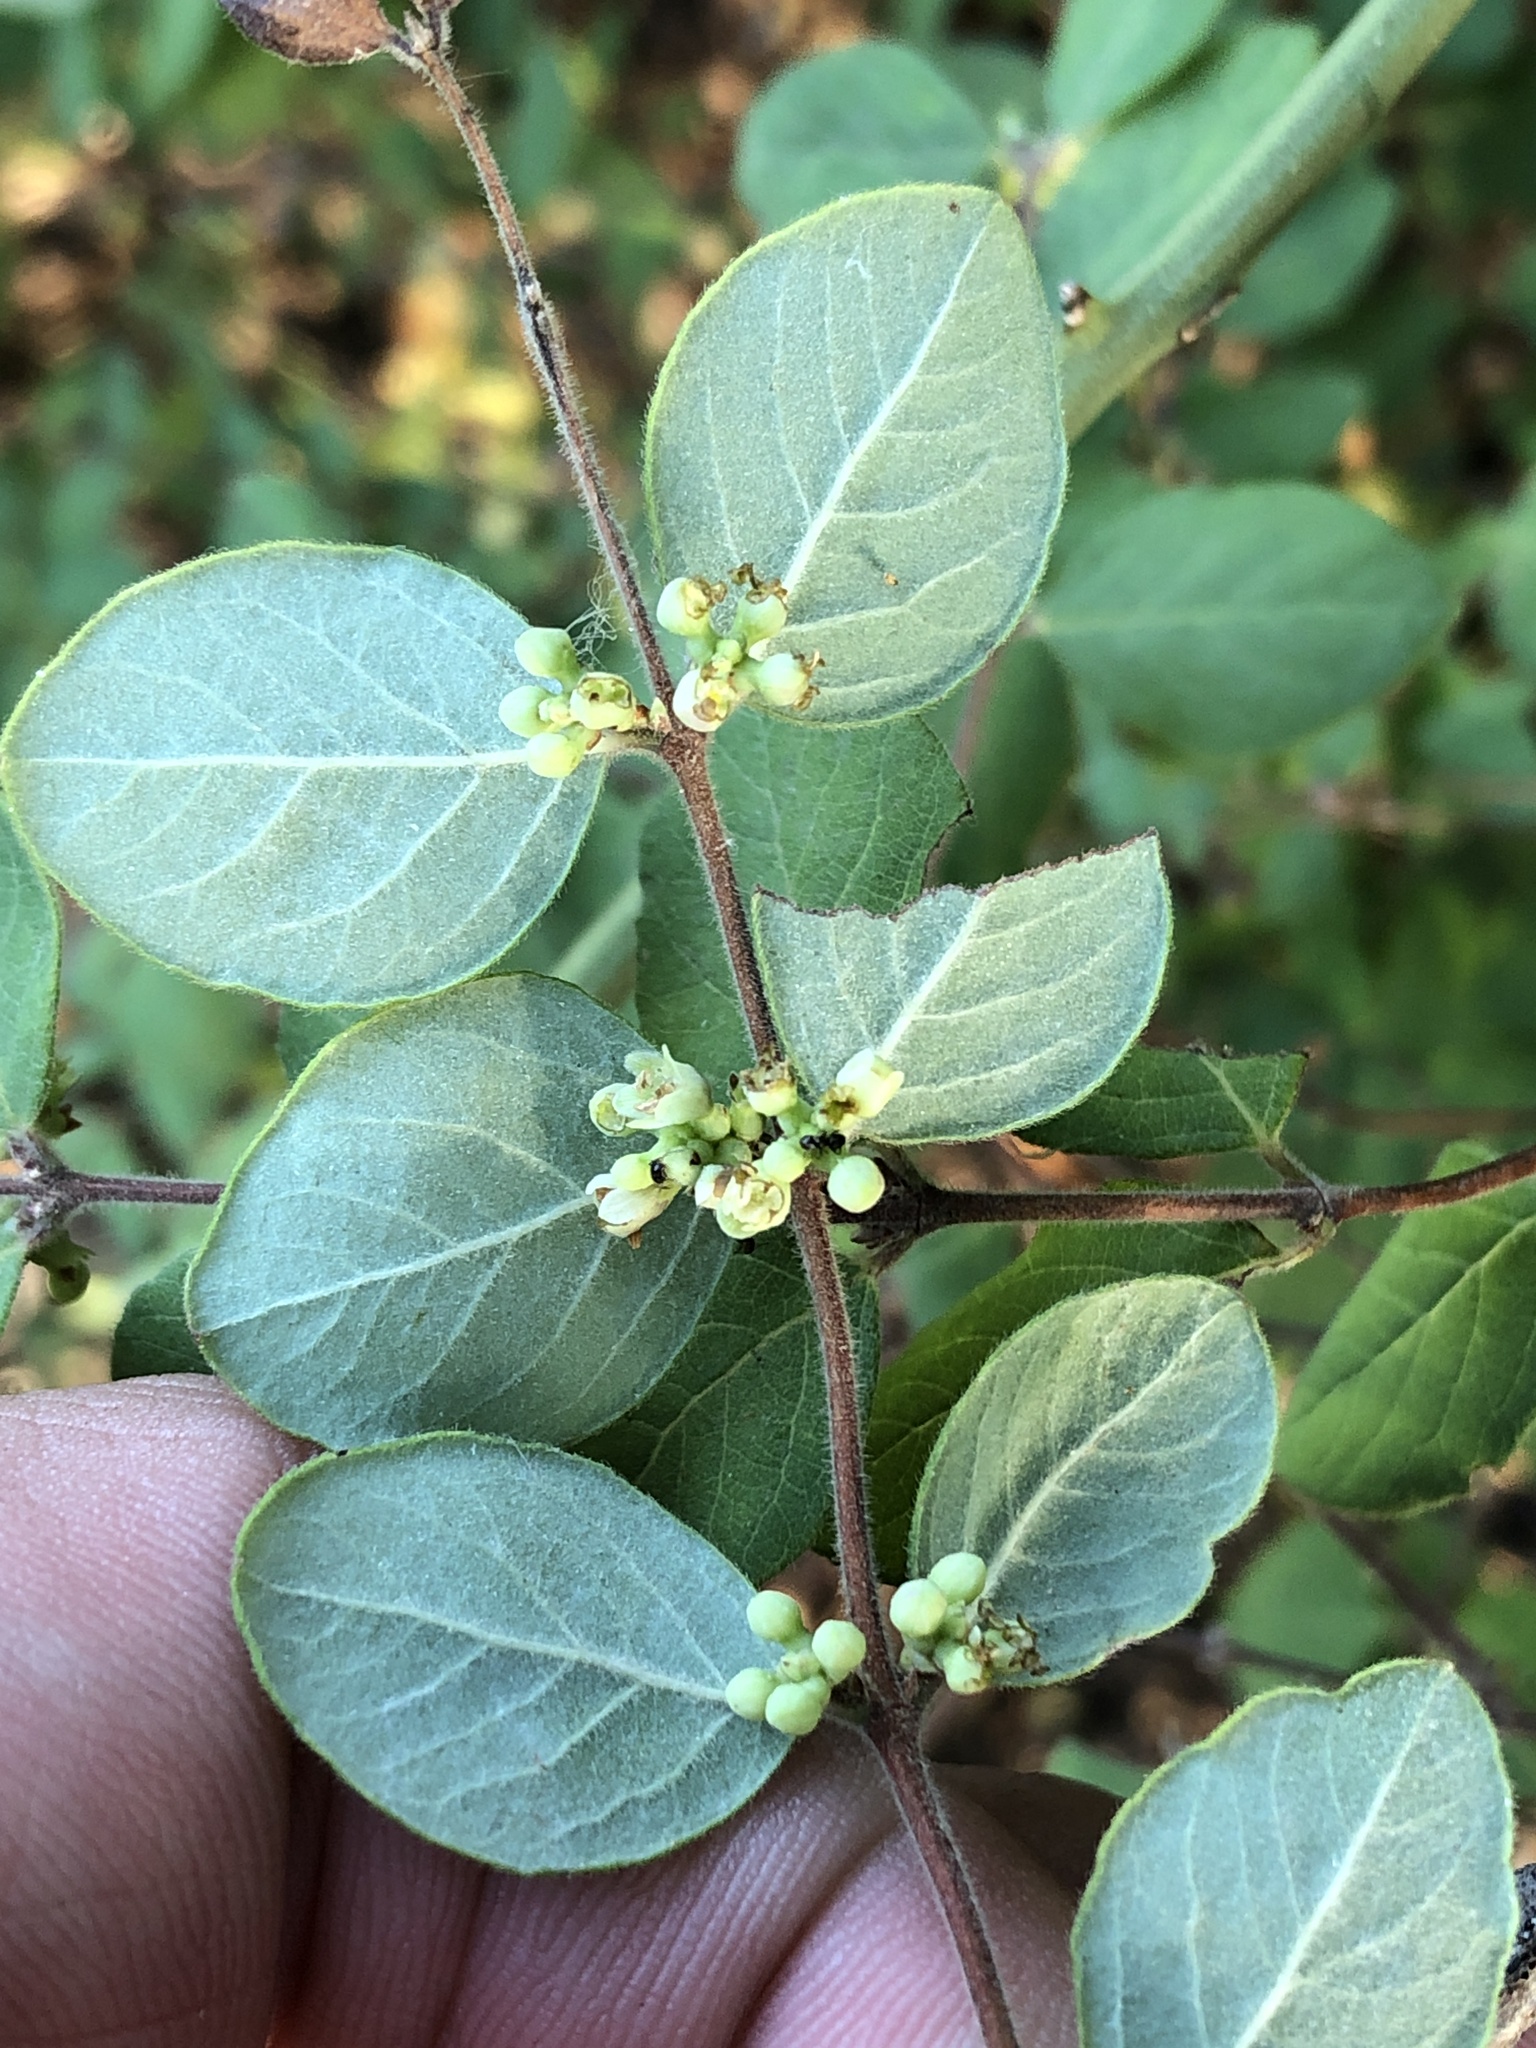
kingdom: Plantae
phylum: Tracheophyta
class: Magnoliopsida
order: Dipsacales
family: Caprifoliaceae
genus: Symphoricarpos
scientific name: Symphoricarpos orbiculatus
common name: Coralberry
